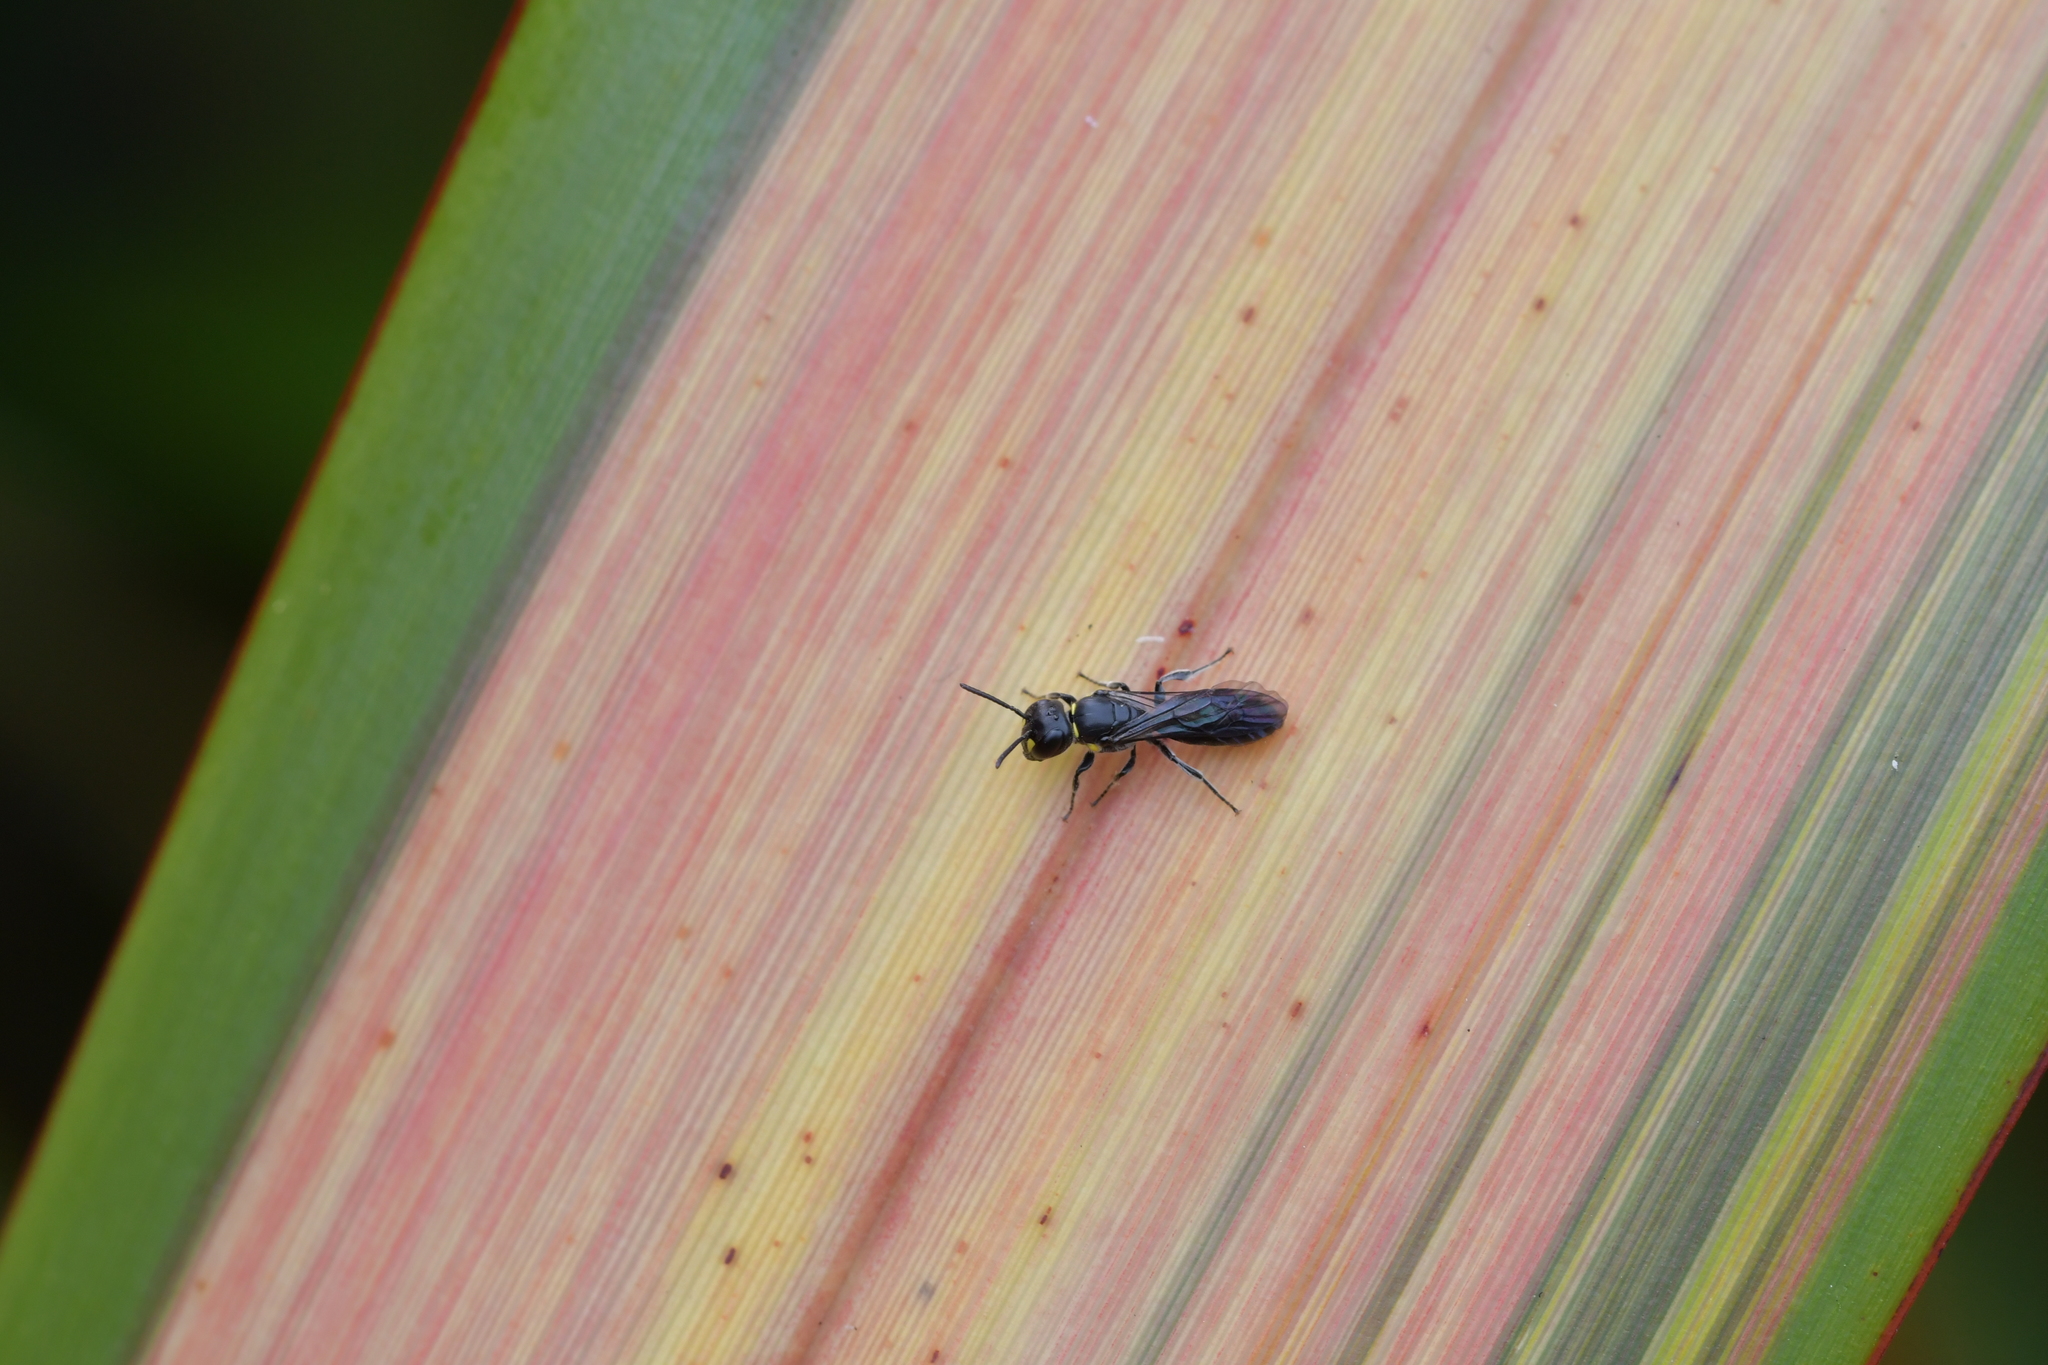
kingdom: Animalia
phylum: Arthropoda
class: Insecta
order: Hymenoptera
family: Colletidae
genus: Hylaeus
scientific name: Hylaeus agilis
